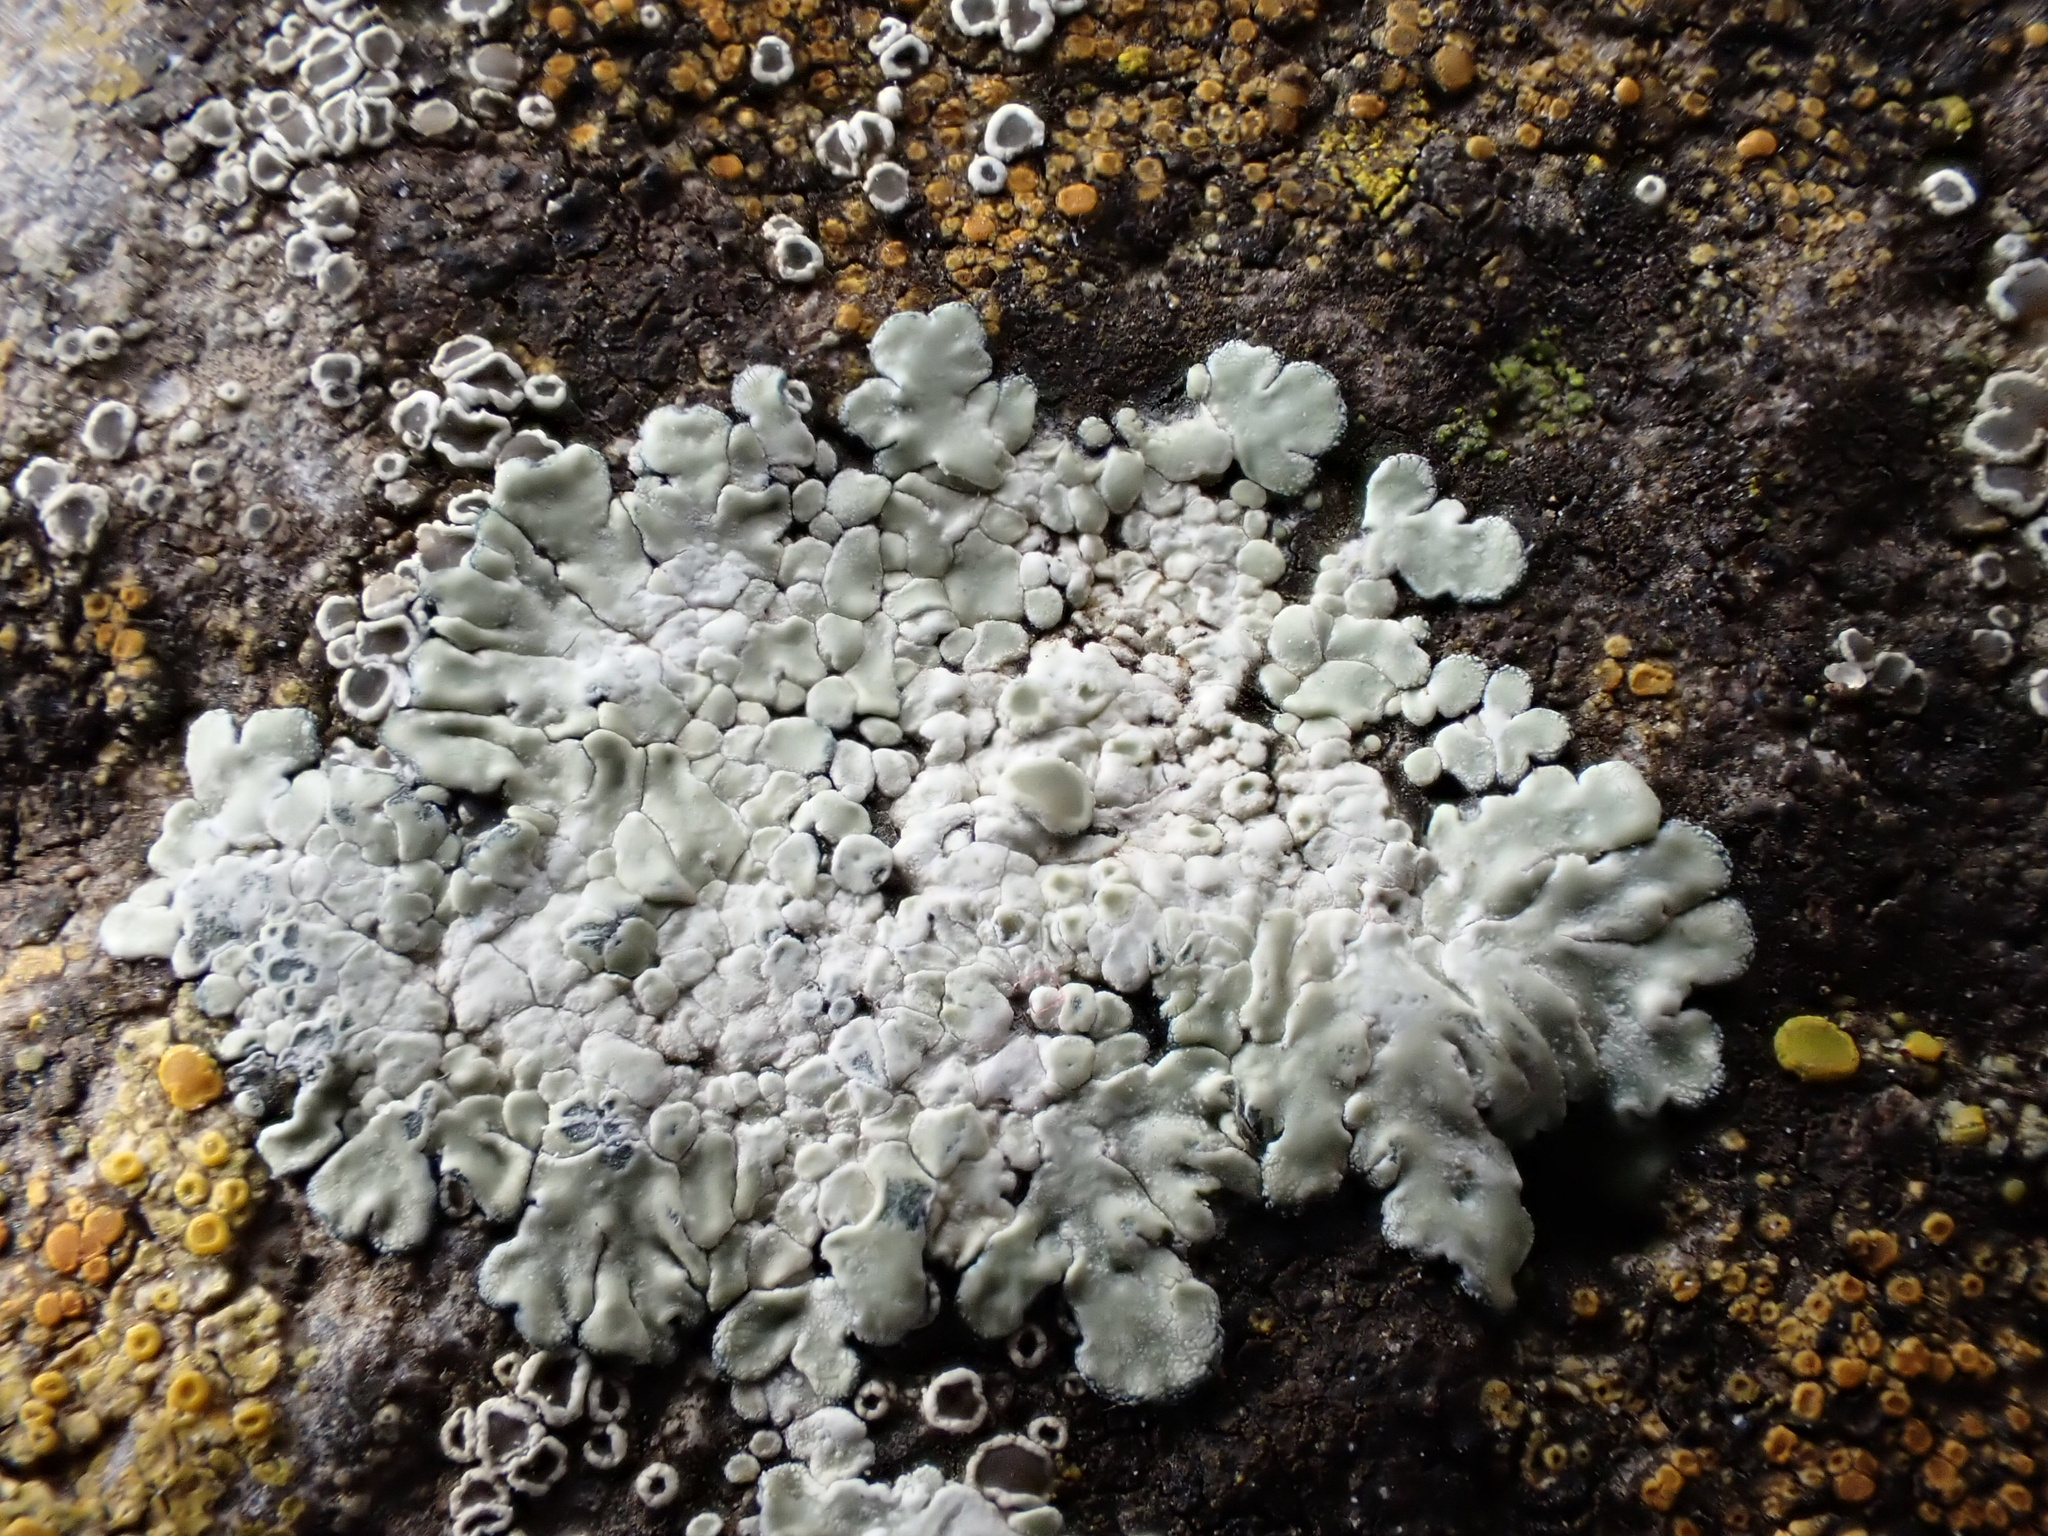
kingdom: Fungi
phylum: Ascomycota
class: Lecanoromycetes
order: Lecanorales
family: Lecanoraceae
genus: Protoparmeliopsis
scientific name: Protoparmeliopsis muralis
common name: Stonewall rim lichen
